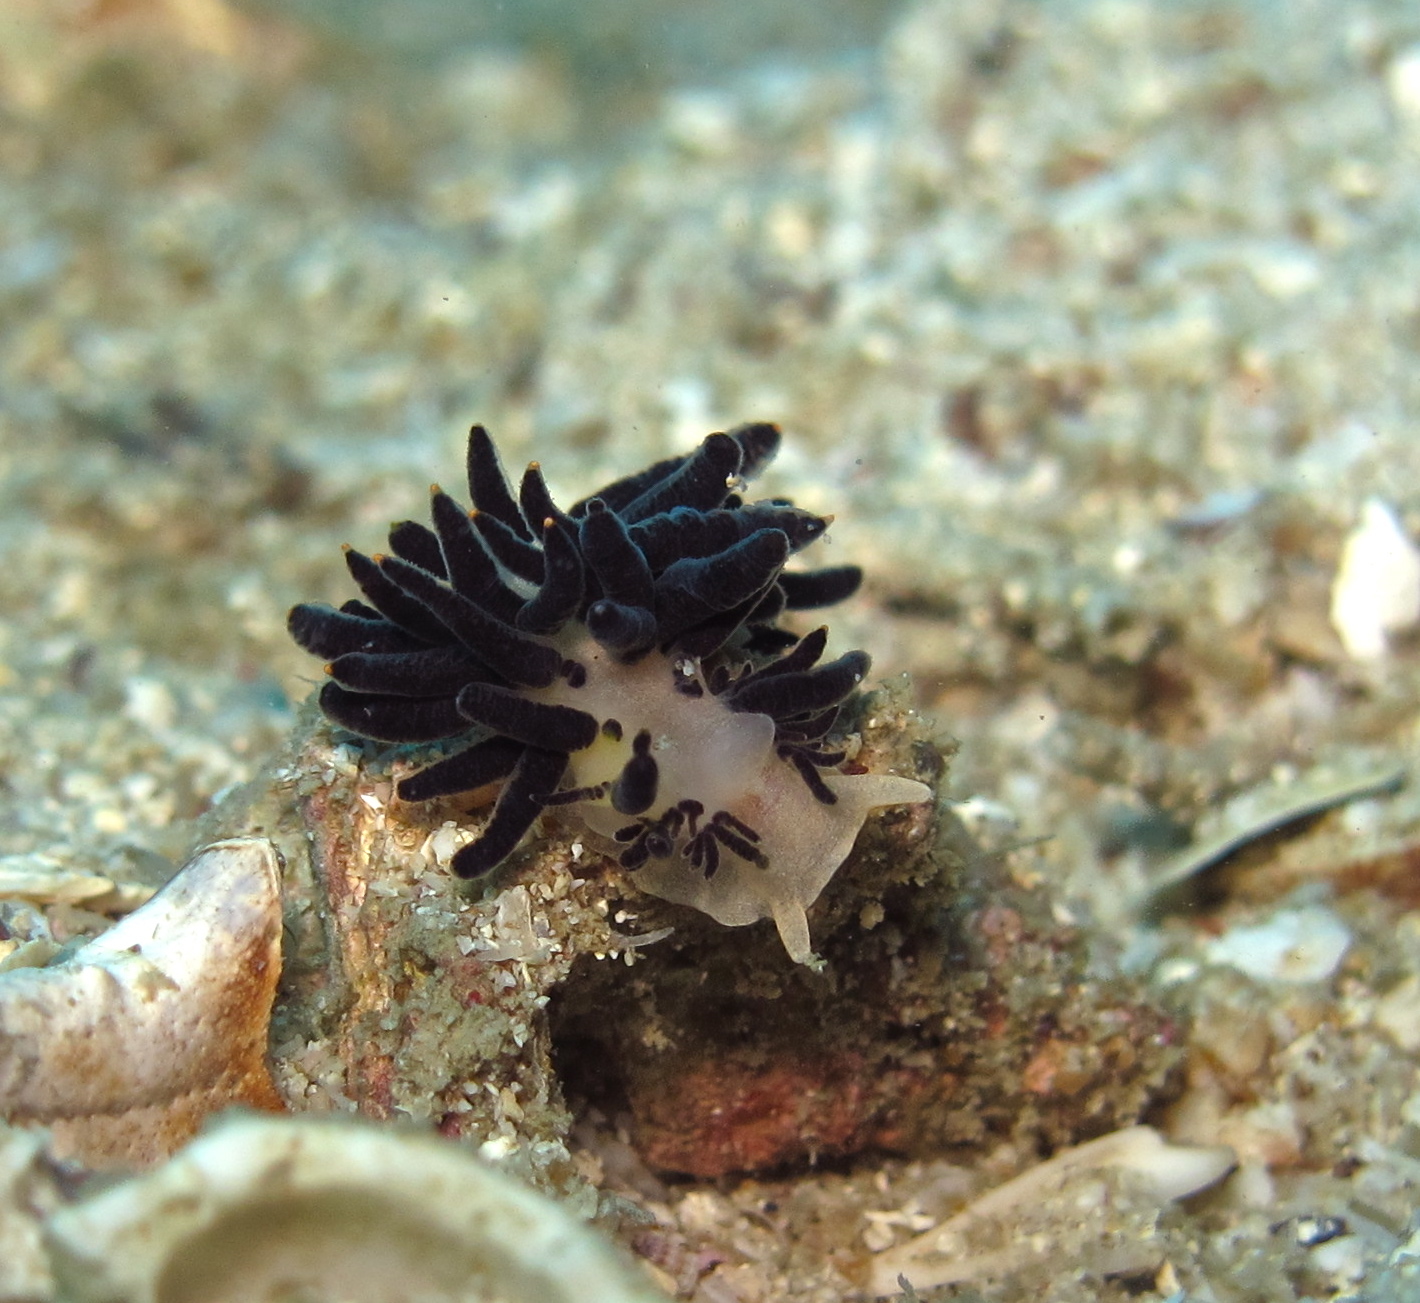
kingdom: Animalia
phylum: Mollusca
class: Gastropoda
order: Nudibranchia
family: Trinchesiidae
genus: Phestilla
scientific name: Phestilla melanobrachia
